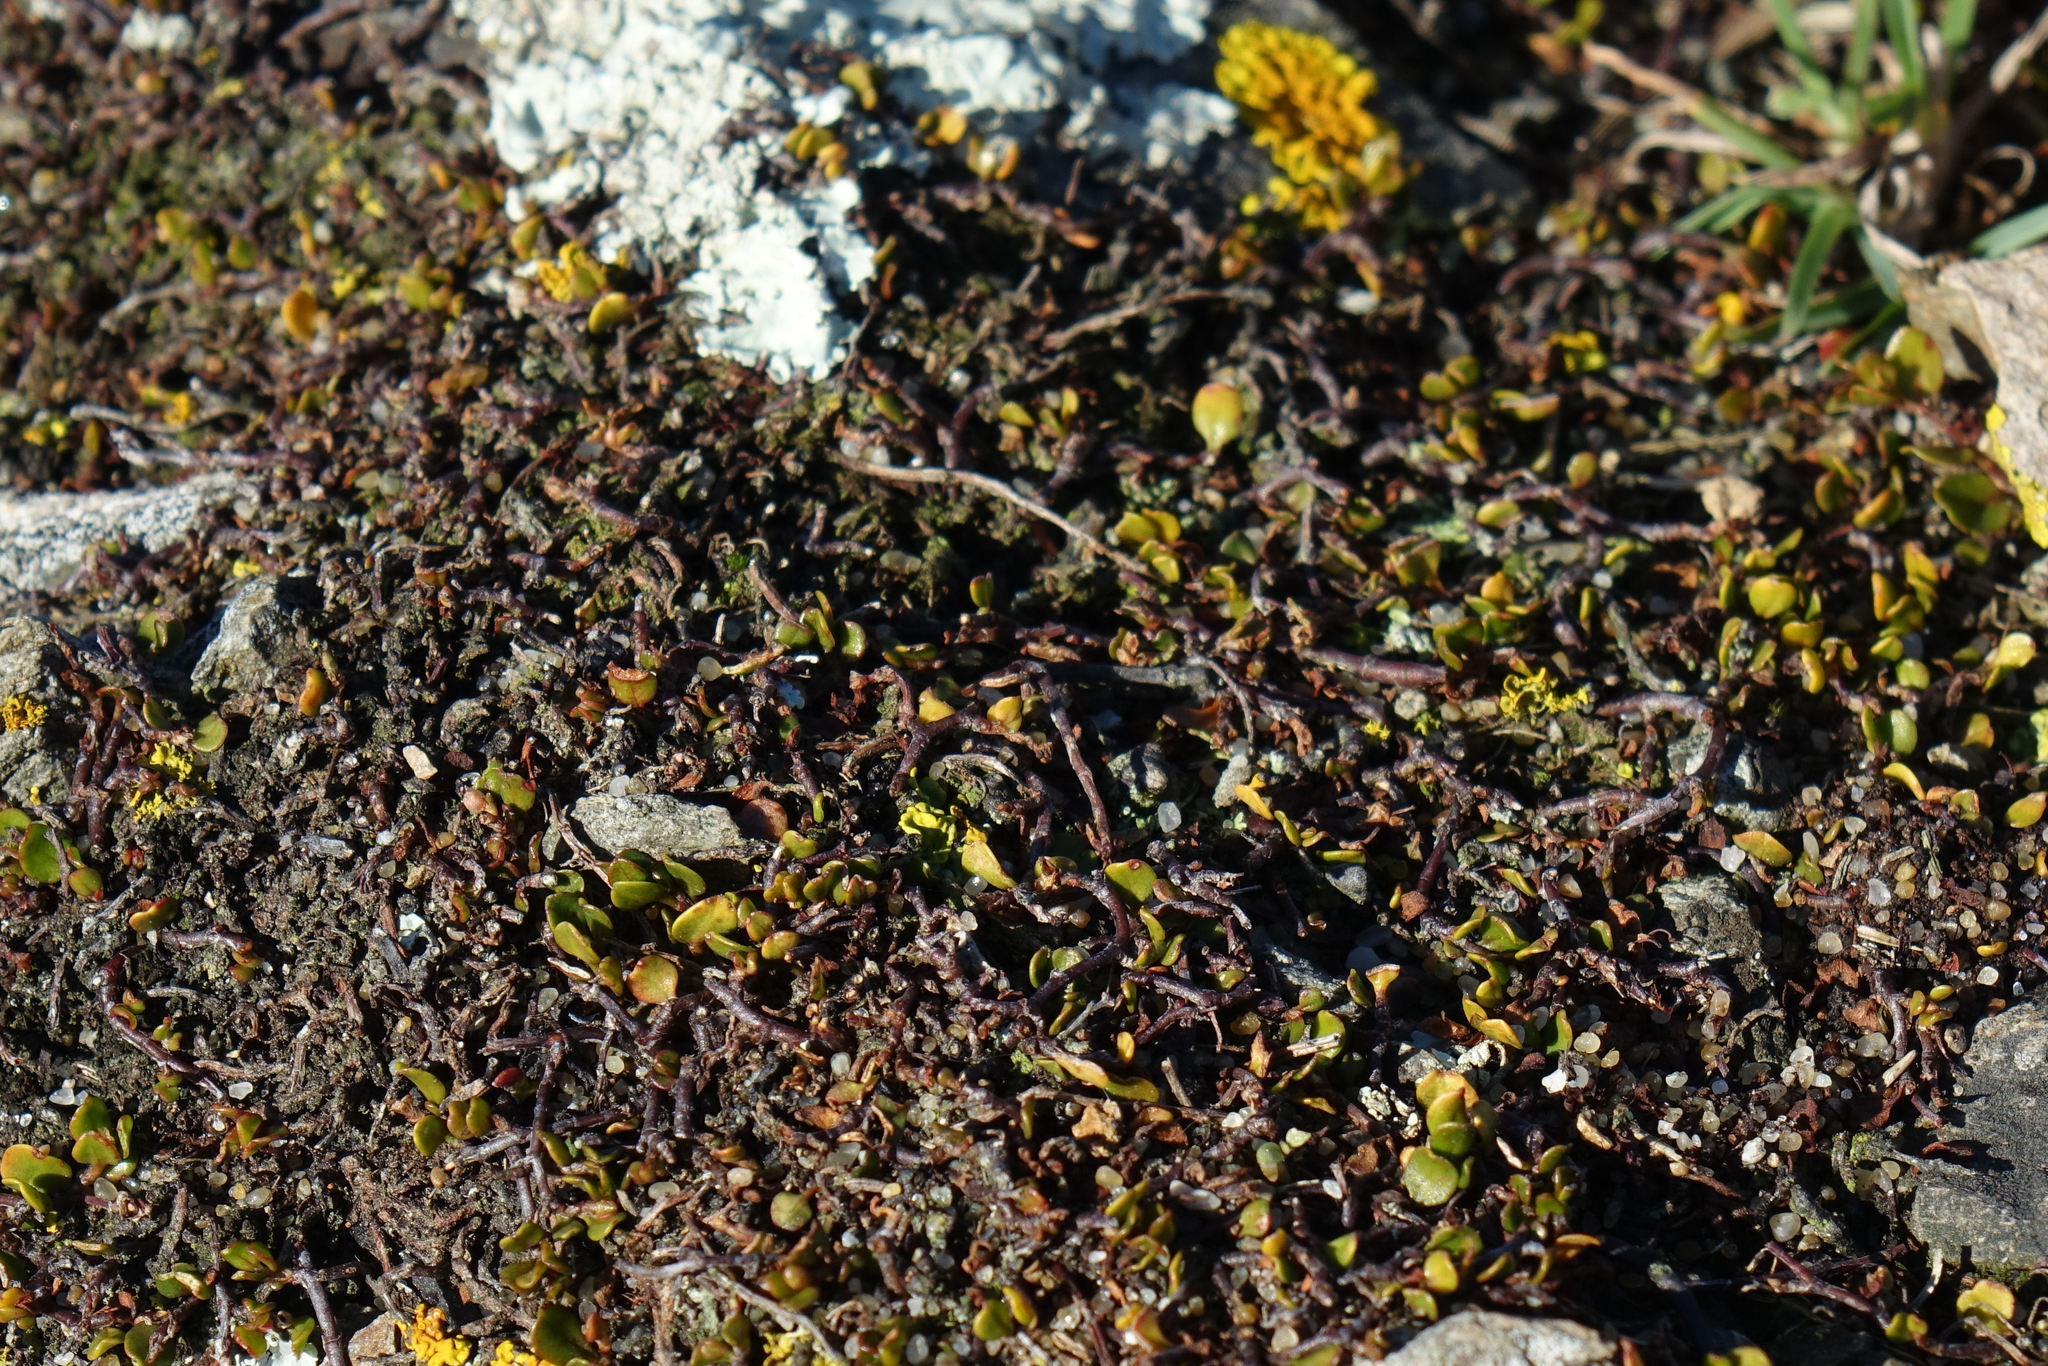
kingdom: Plantae
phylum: Tracheophyta
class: Magnoliopsida
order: Caryophyllales
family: Polygonaceae
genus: Muehlenbeckia
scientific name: Muehlenbeckia axillaris
